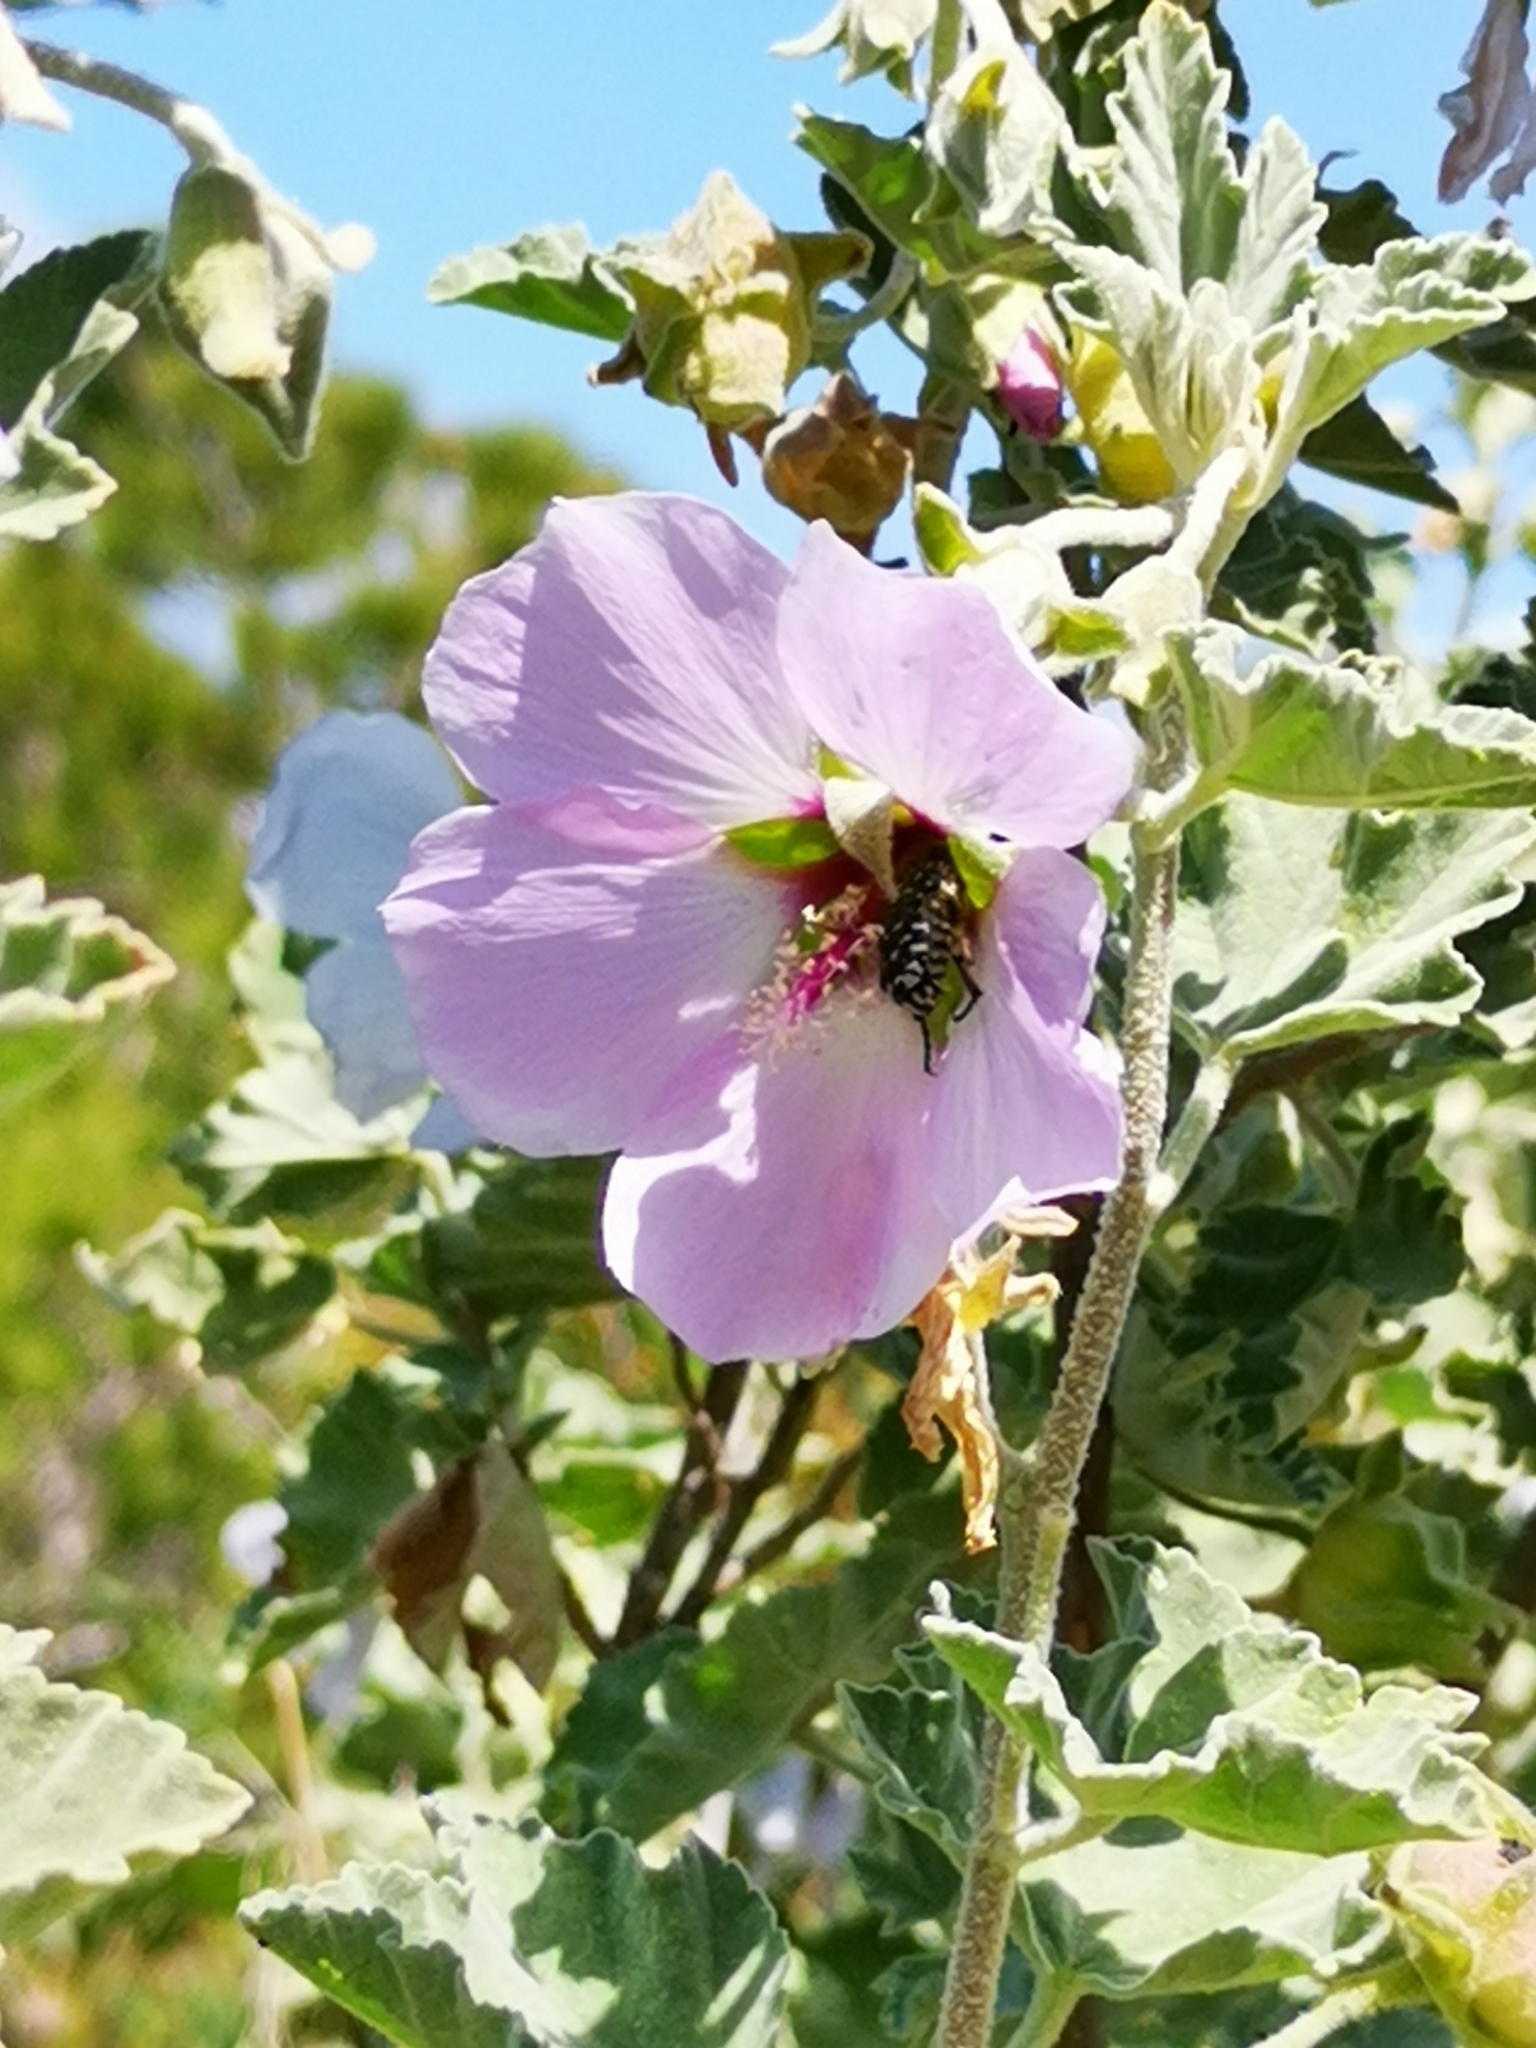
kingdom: Animalia
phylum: Arthropoda
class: Insecta
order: Coleoptera
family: Scarabaeidae
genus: Oxythyrea
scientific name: Oxythyrea funesta
